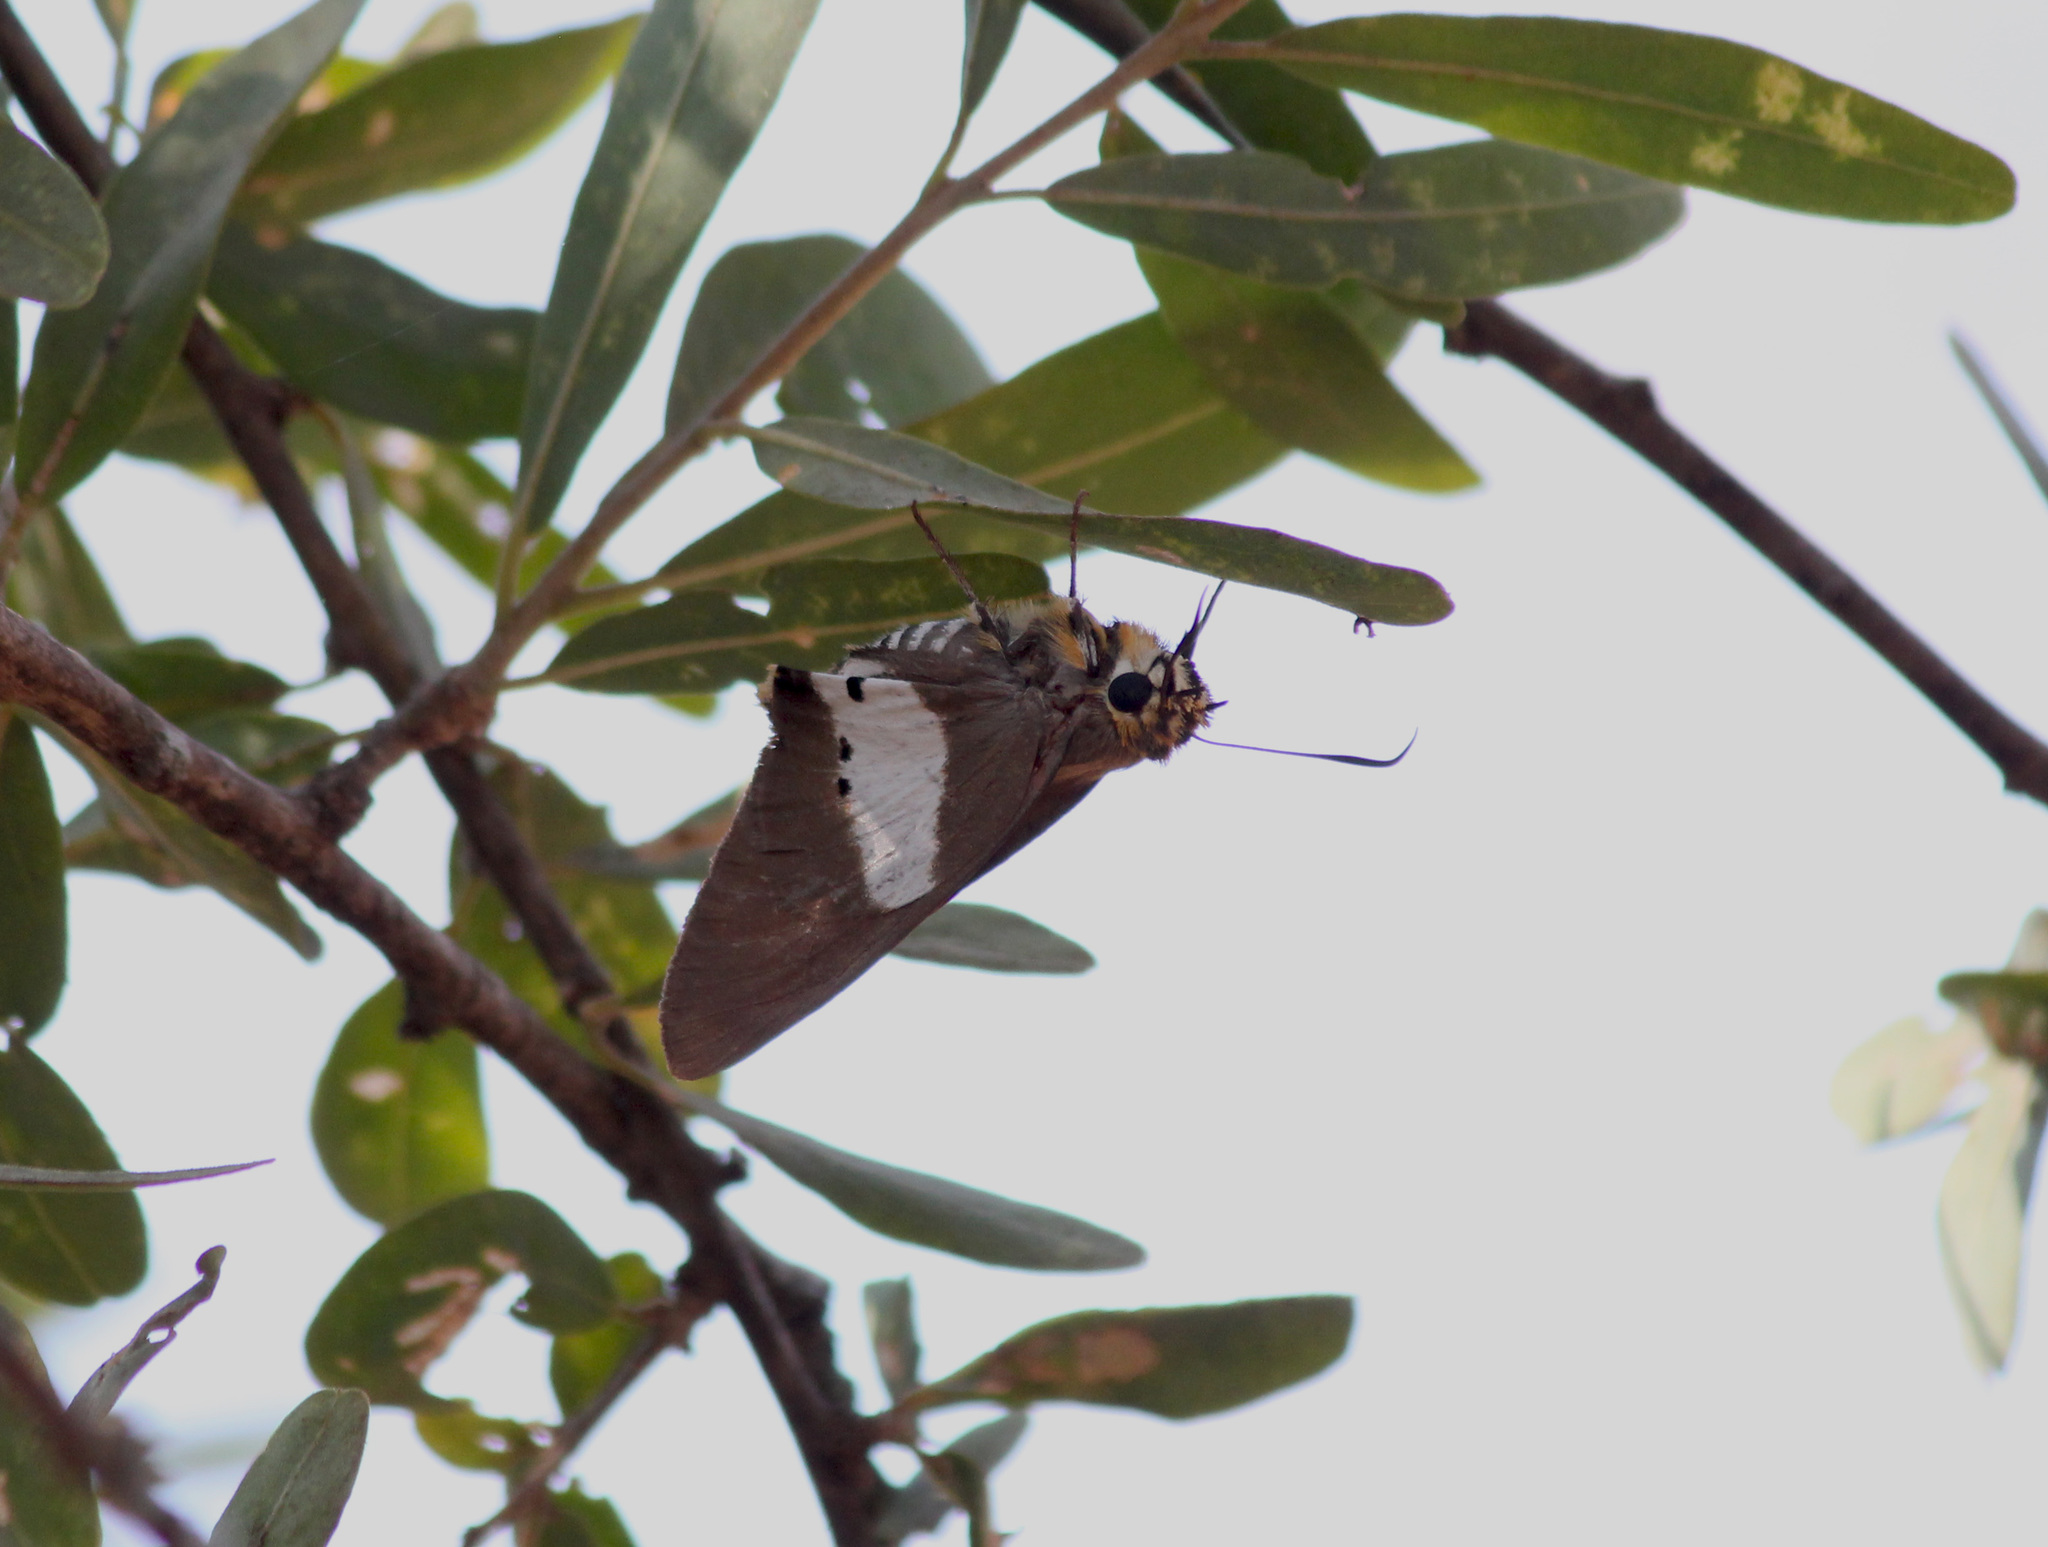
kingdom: Animalia
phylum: Arthropoda
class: Insecta
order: Lepidoptera
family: Hesperiidae
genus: Coeliades
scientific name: Coeliades pisistratus
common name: Two-pip policeman
